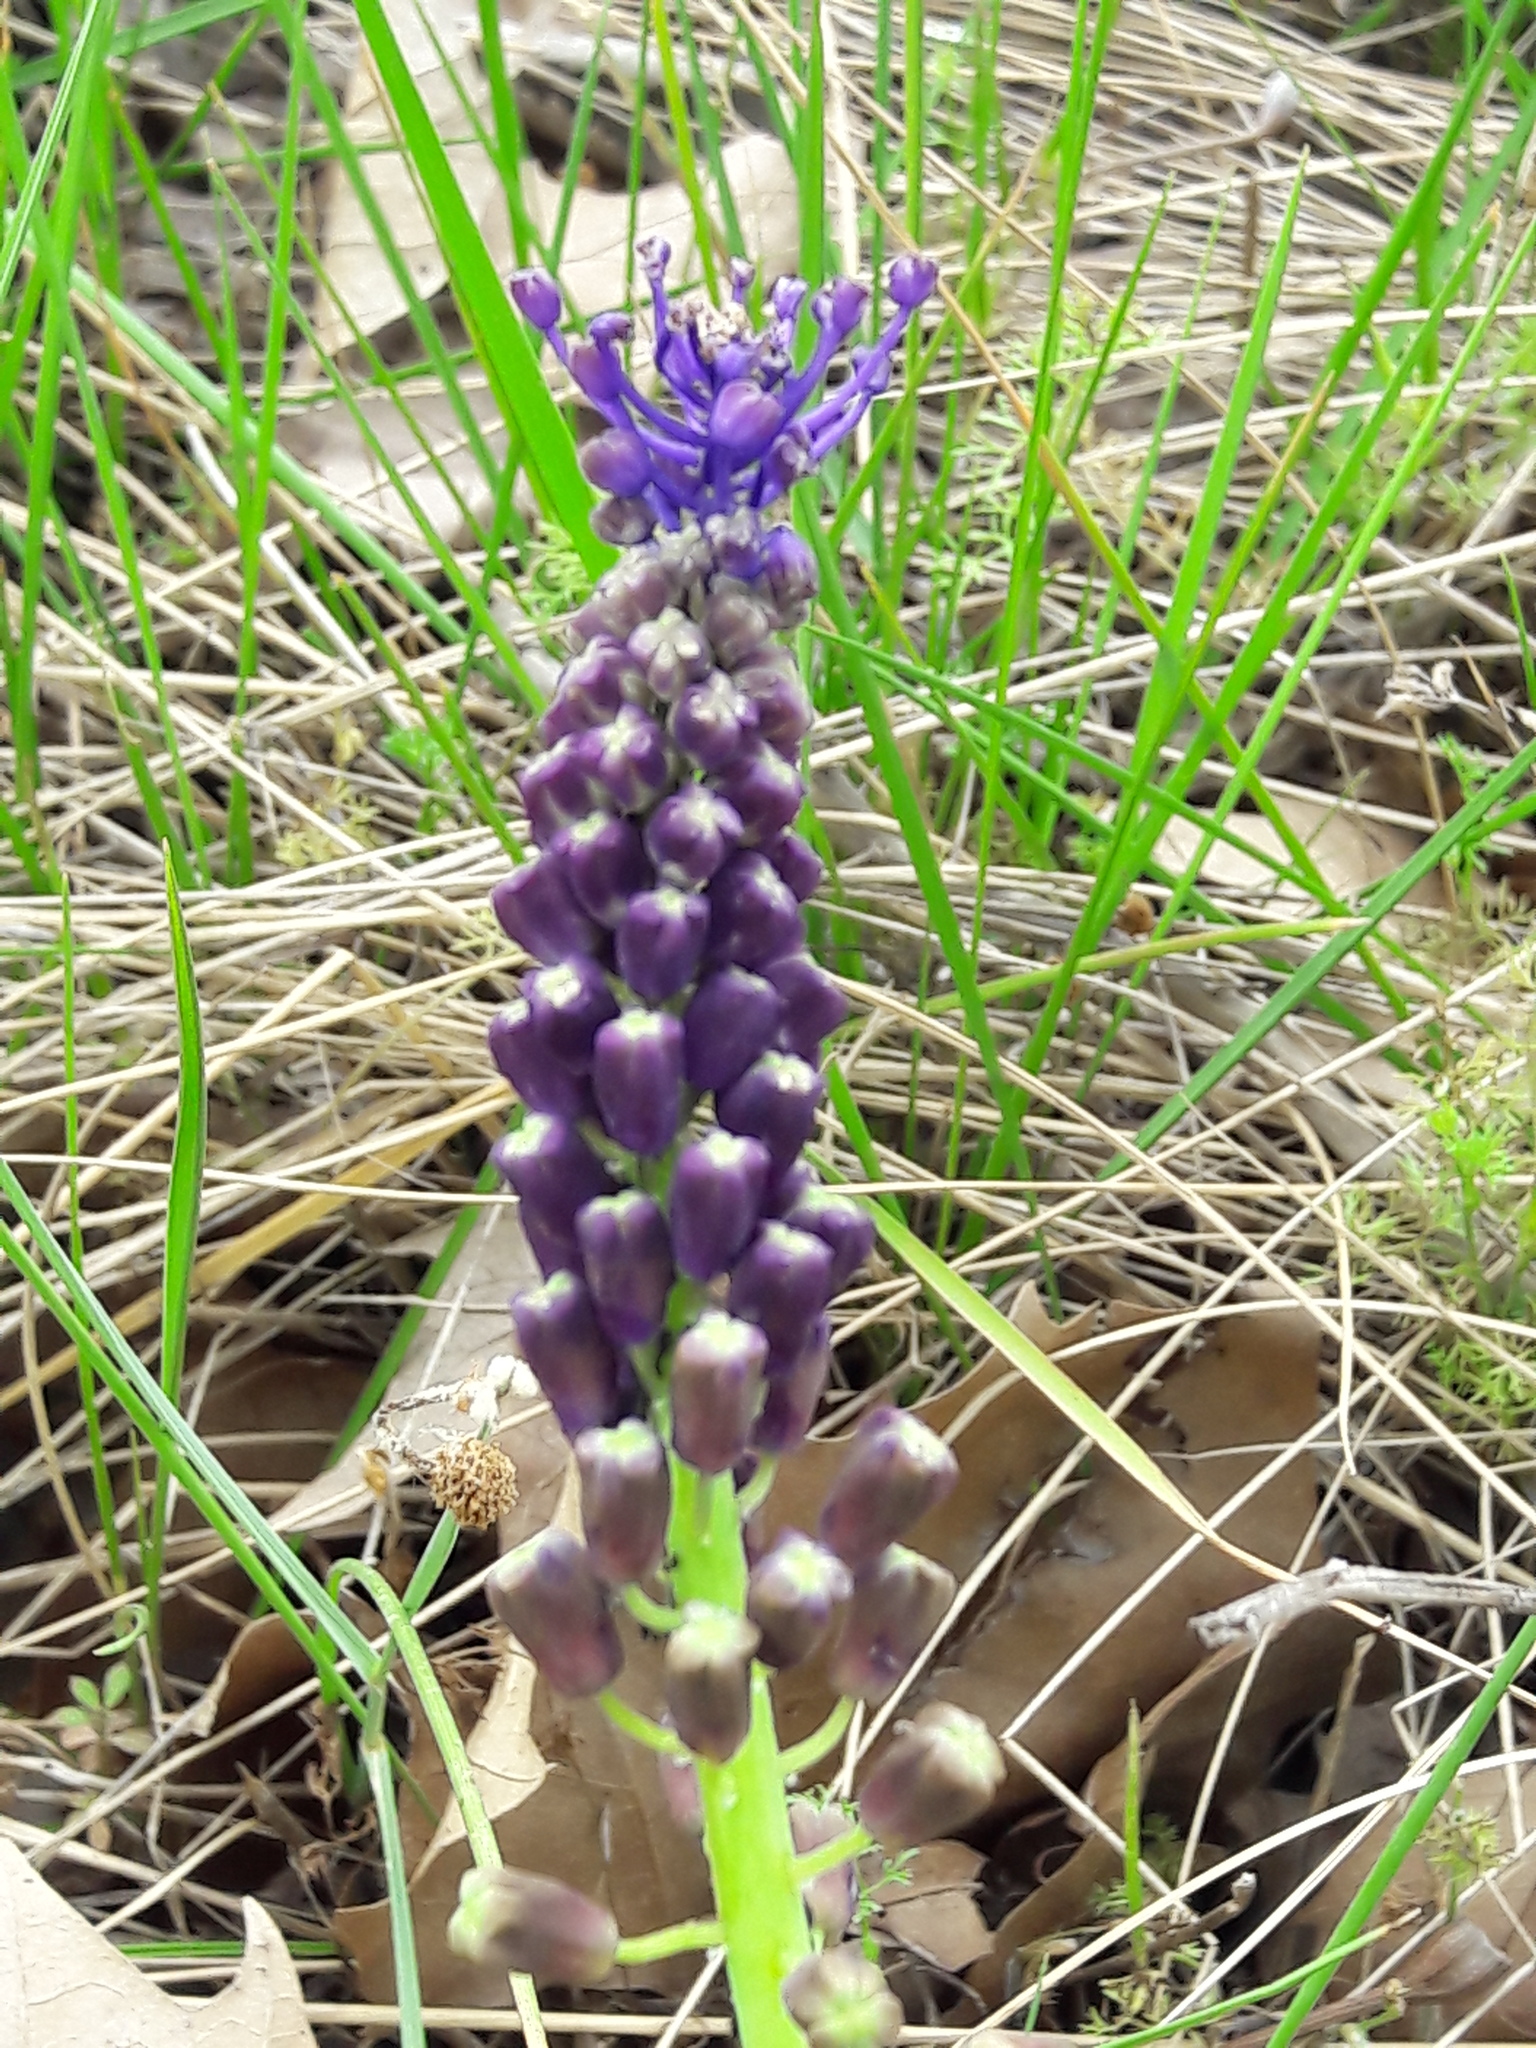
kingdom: Plantae
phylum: Tracheophyta
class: Liliopsida
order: Asparagales
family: Asparagaceae
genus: Muscari
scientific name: Muscari comosum
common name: Tassel hyacinth
